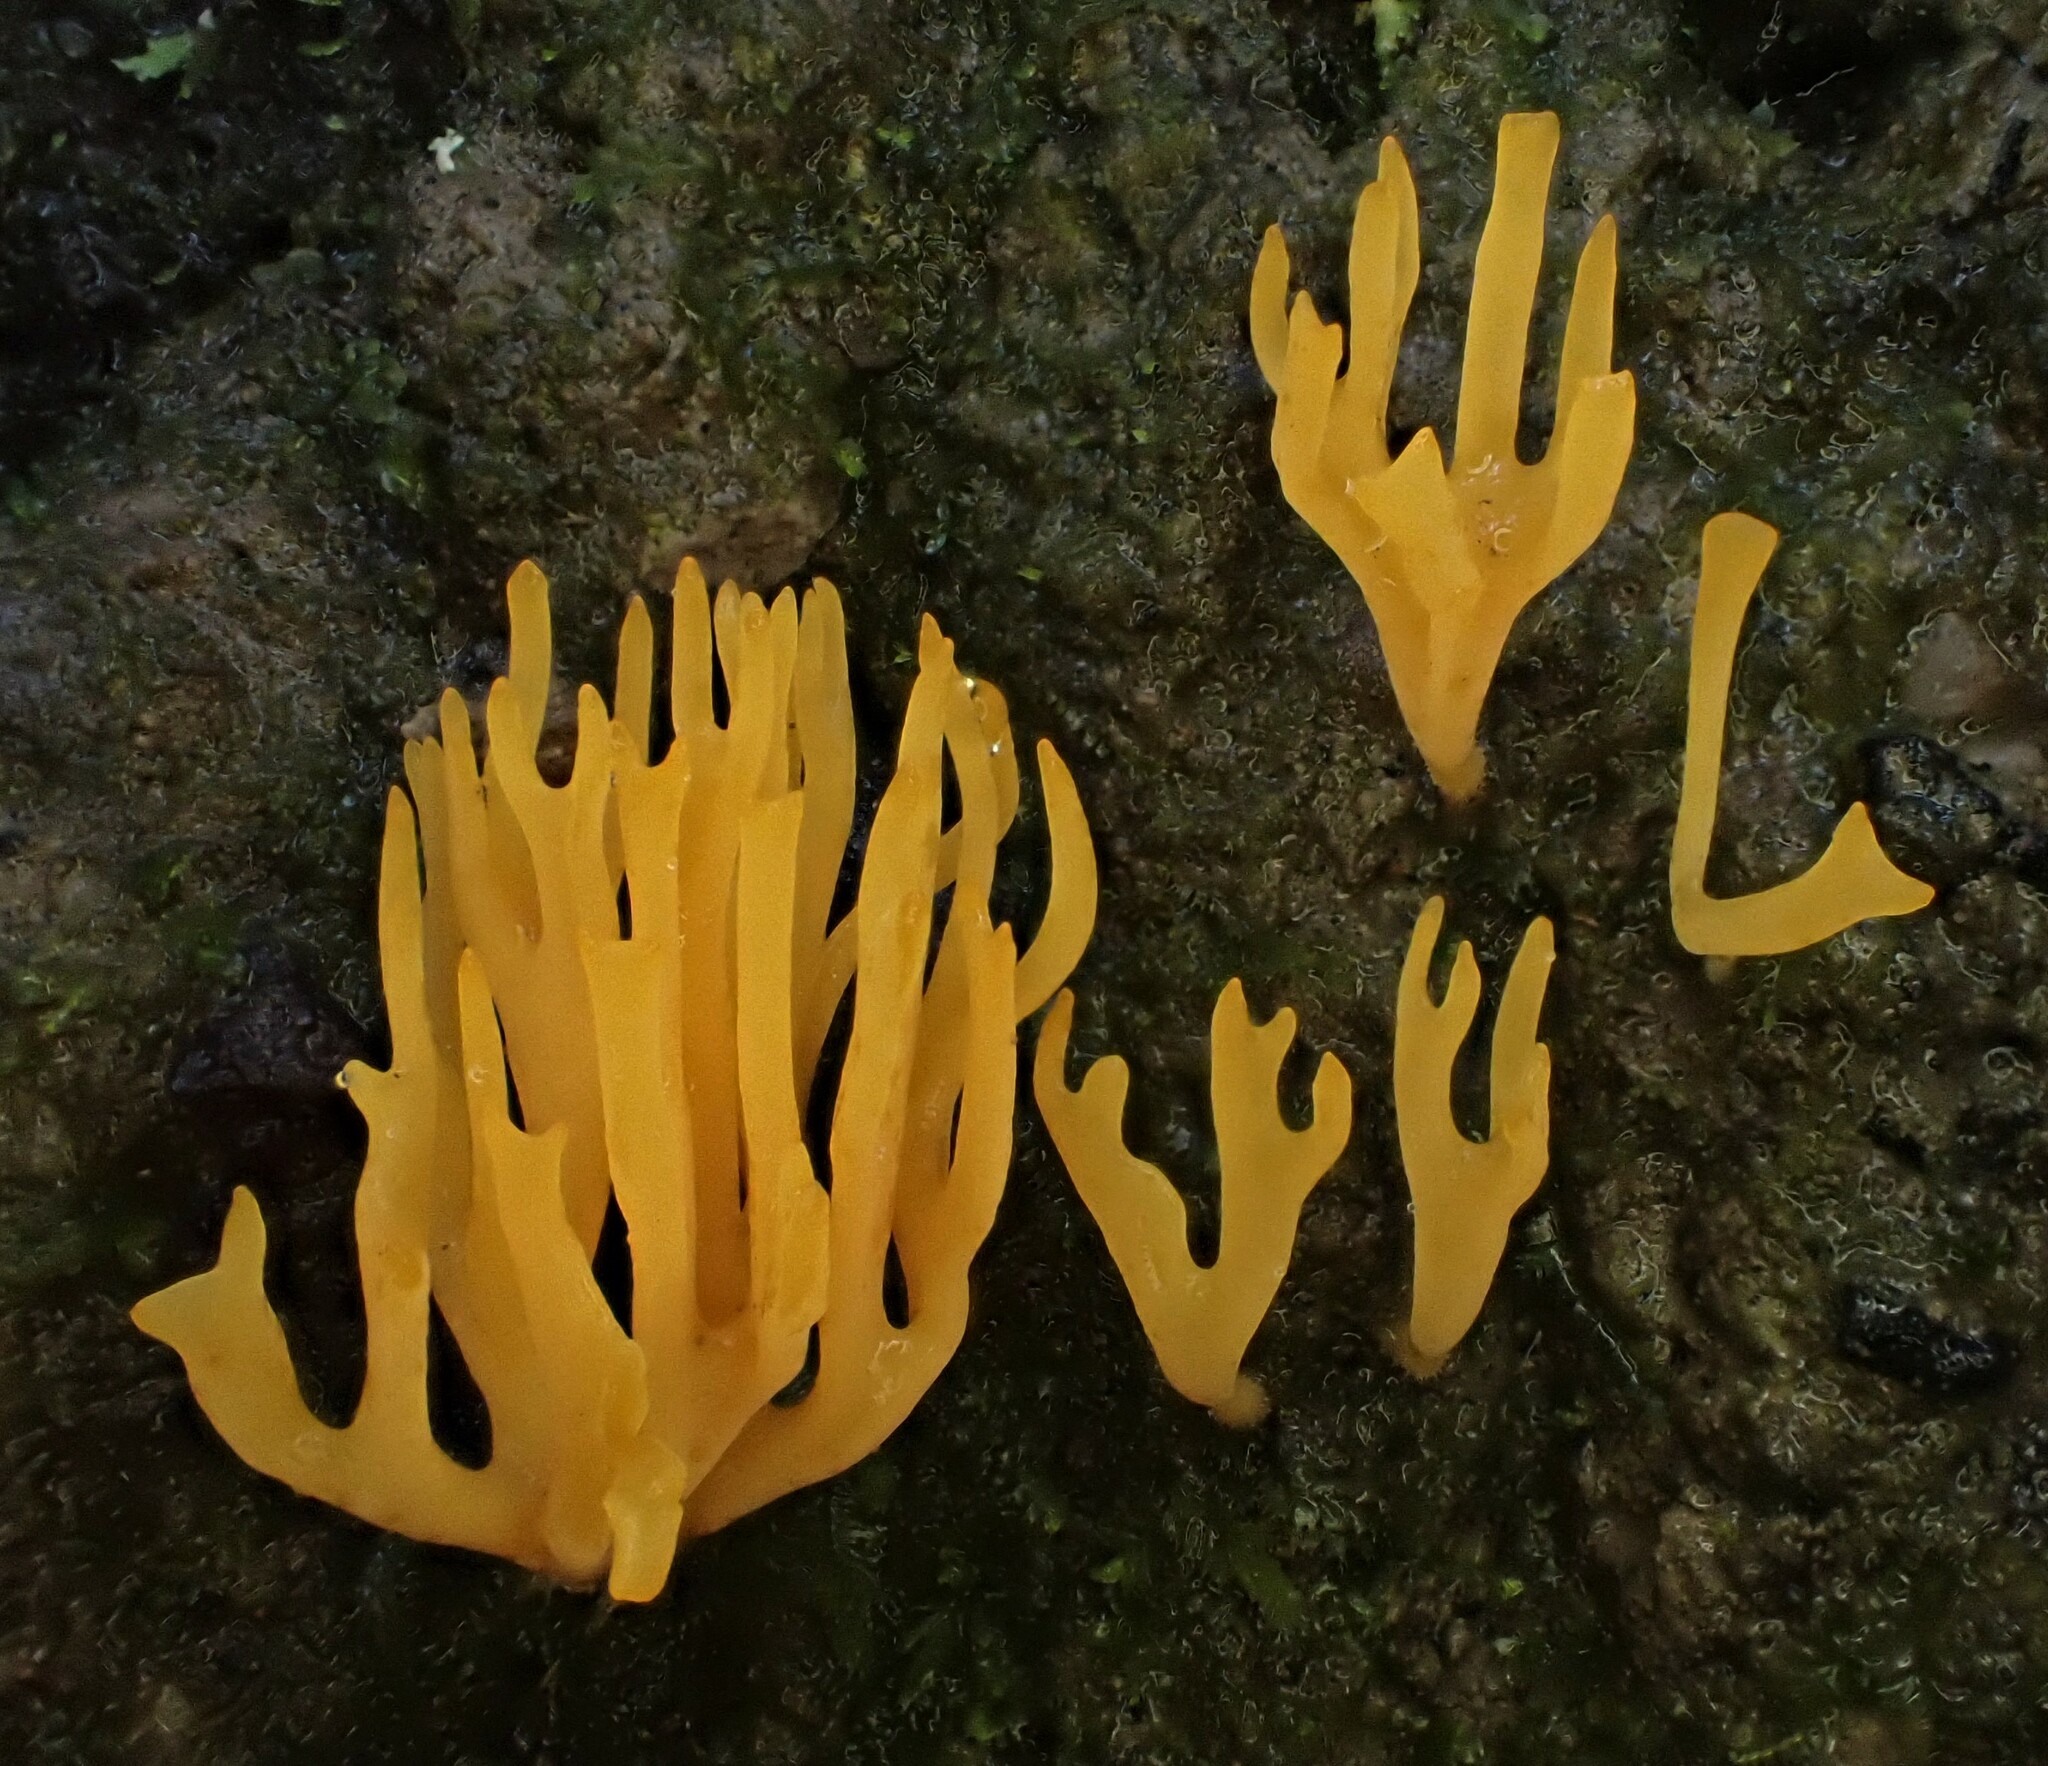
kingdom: Fungi
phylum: Basidiomycota
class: Agaricomycetes
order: Agaricales
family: Clavariaceae
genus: Ramariopsis
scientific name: Ramariopsis crocea
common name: Orange coral
